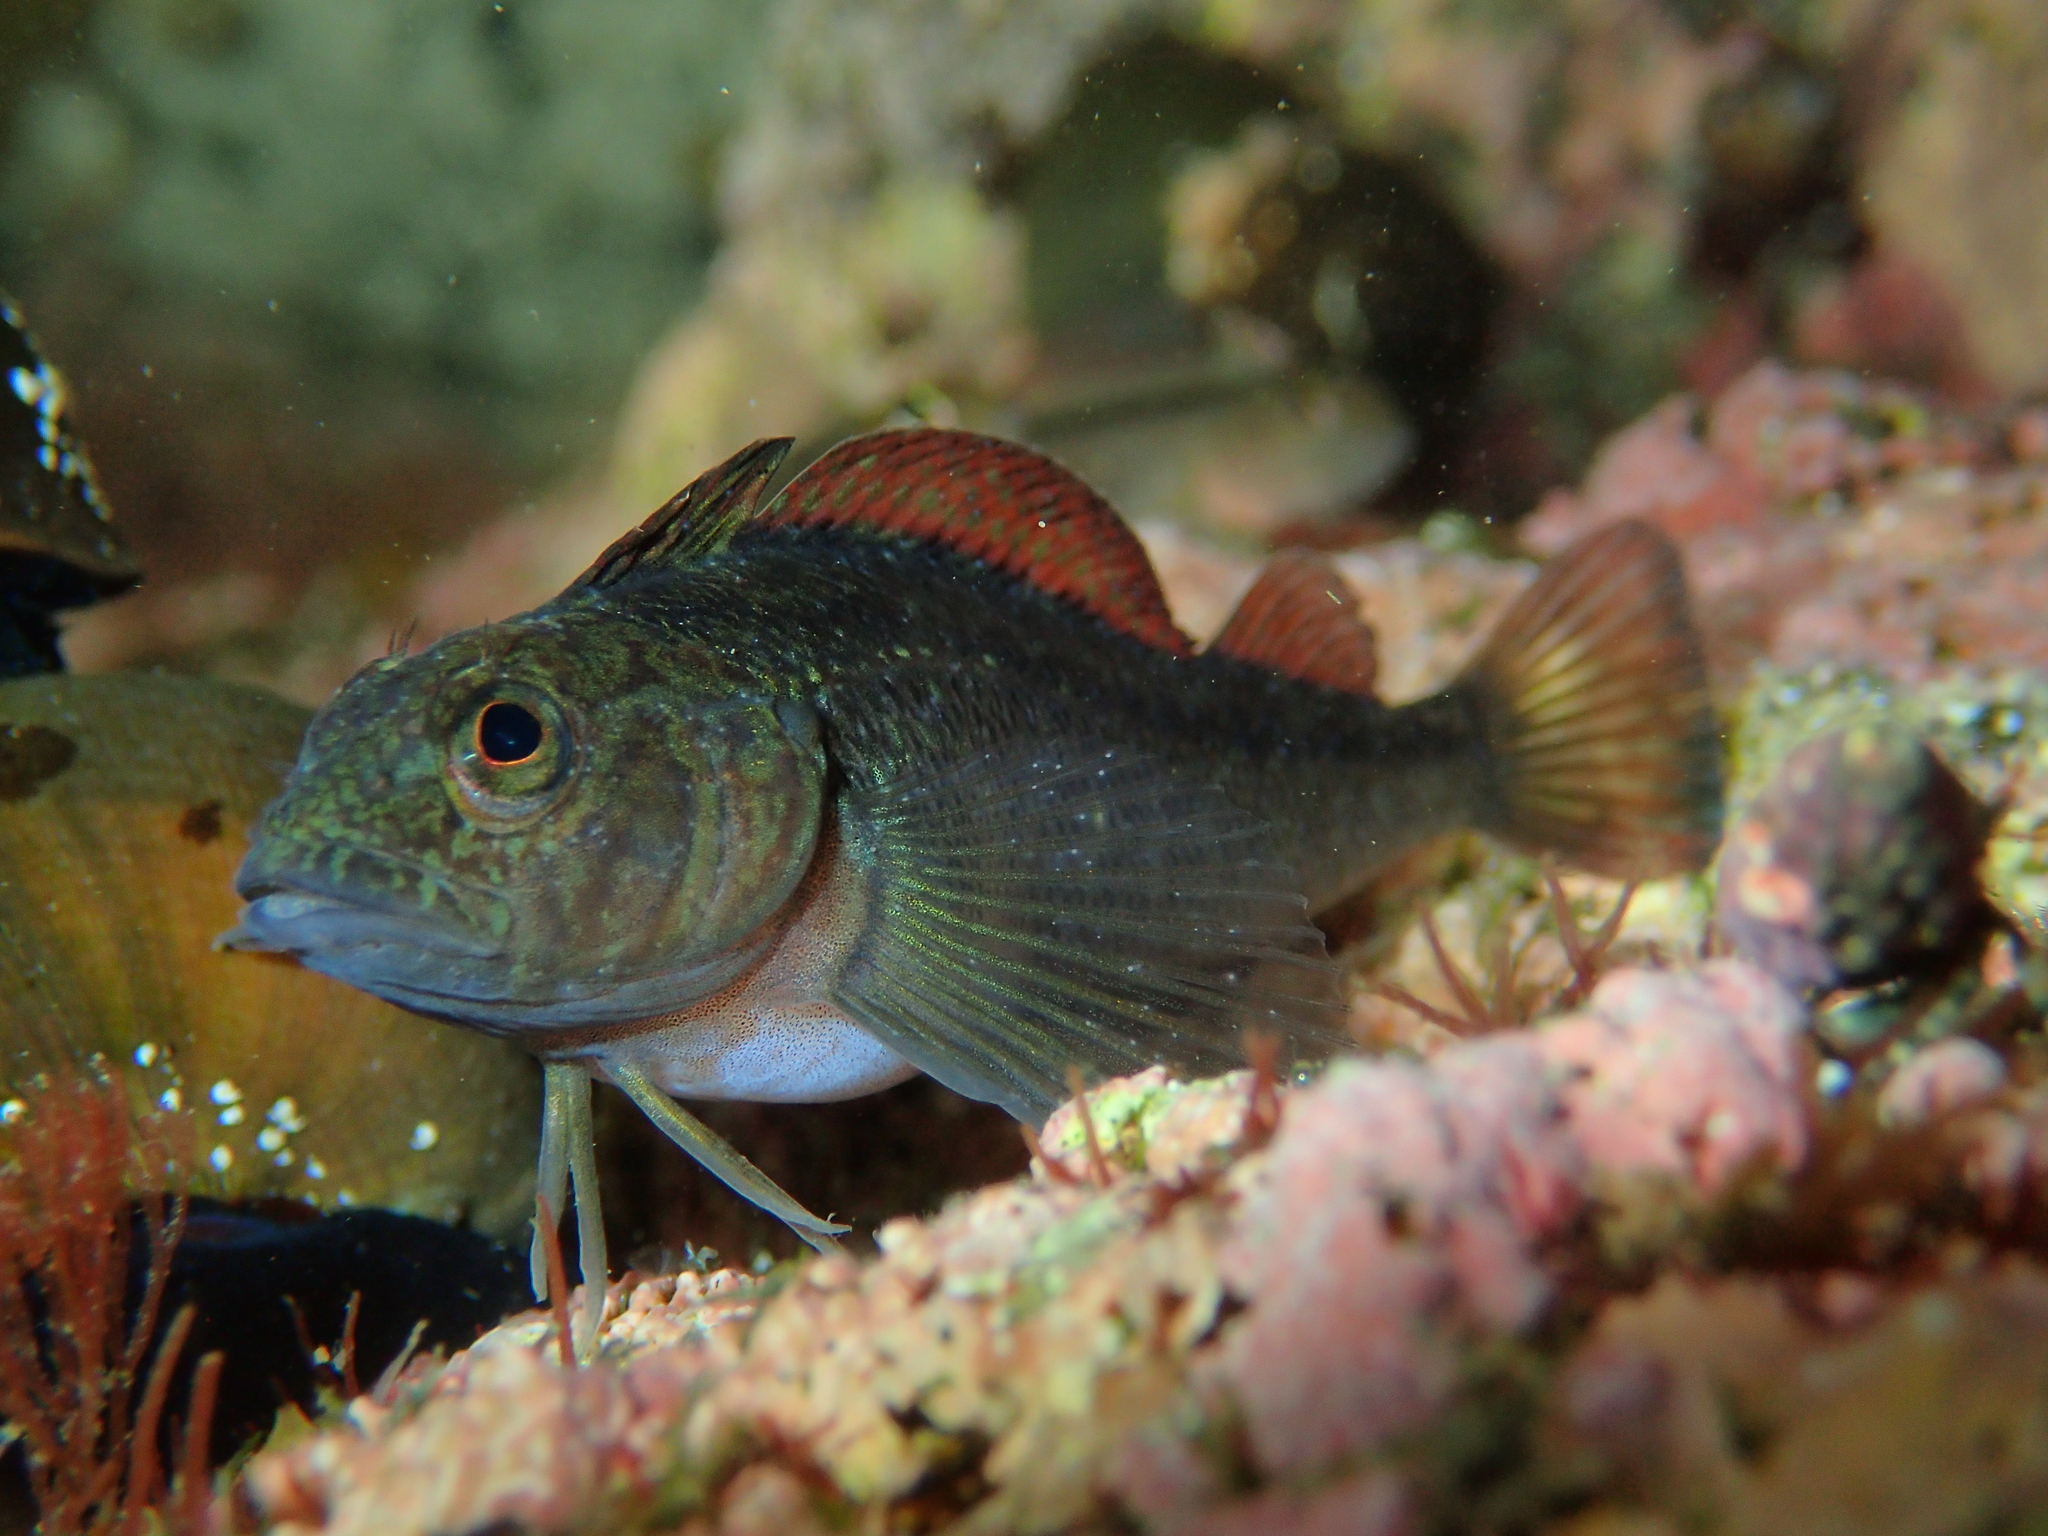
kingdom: Animalia
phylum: Chordata
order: Perciformes
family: Tripterygiidae
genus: Forsterygion
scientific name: Forsterygion lapillum
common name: Common triplefin
